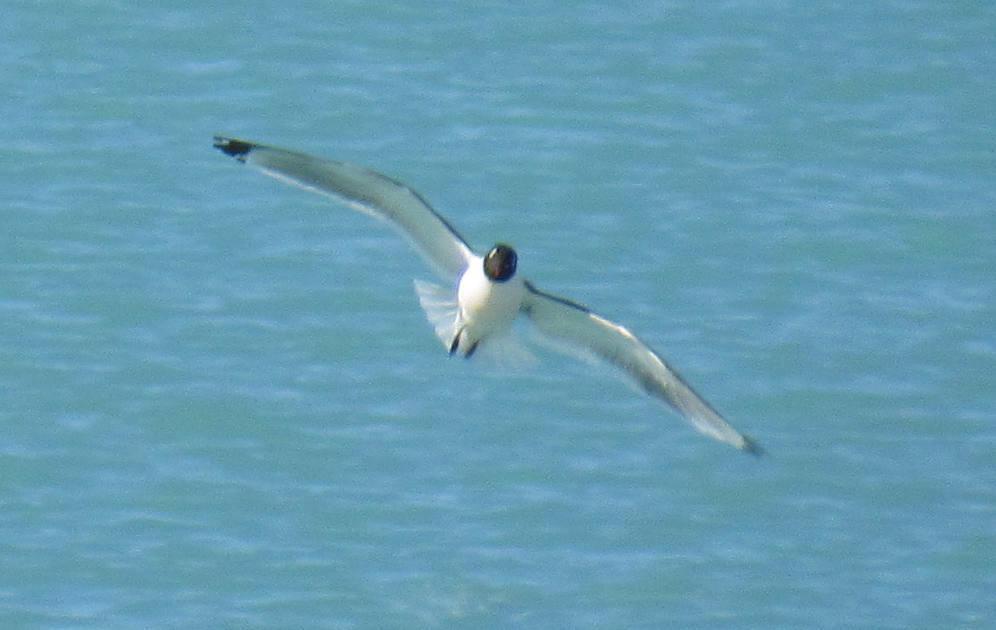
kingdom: Animalia
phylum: Chordata
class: Aves
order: Charadriiformes
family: Laridae
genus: Leucophaeus
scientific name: Leucophaeus pipixcan
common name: Franklin's gull
